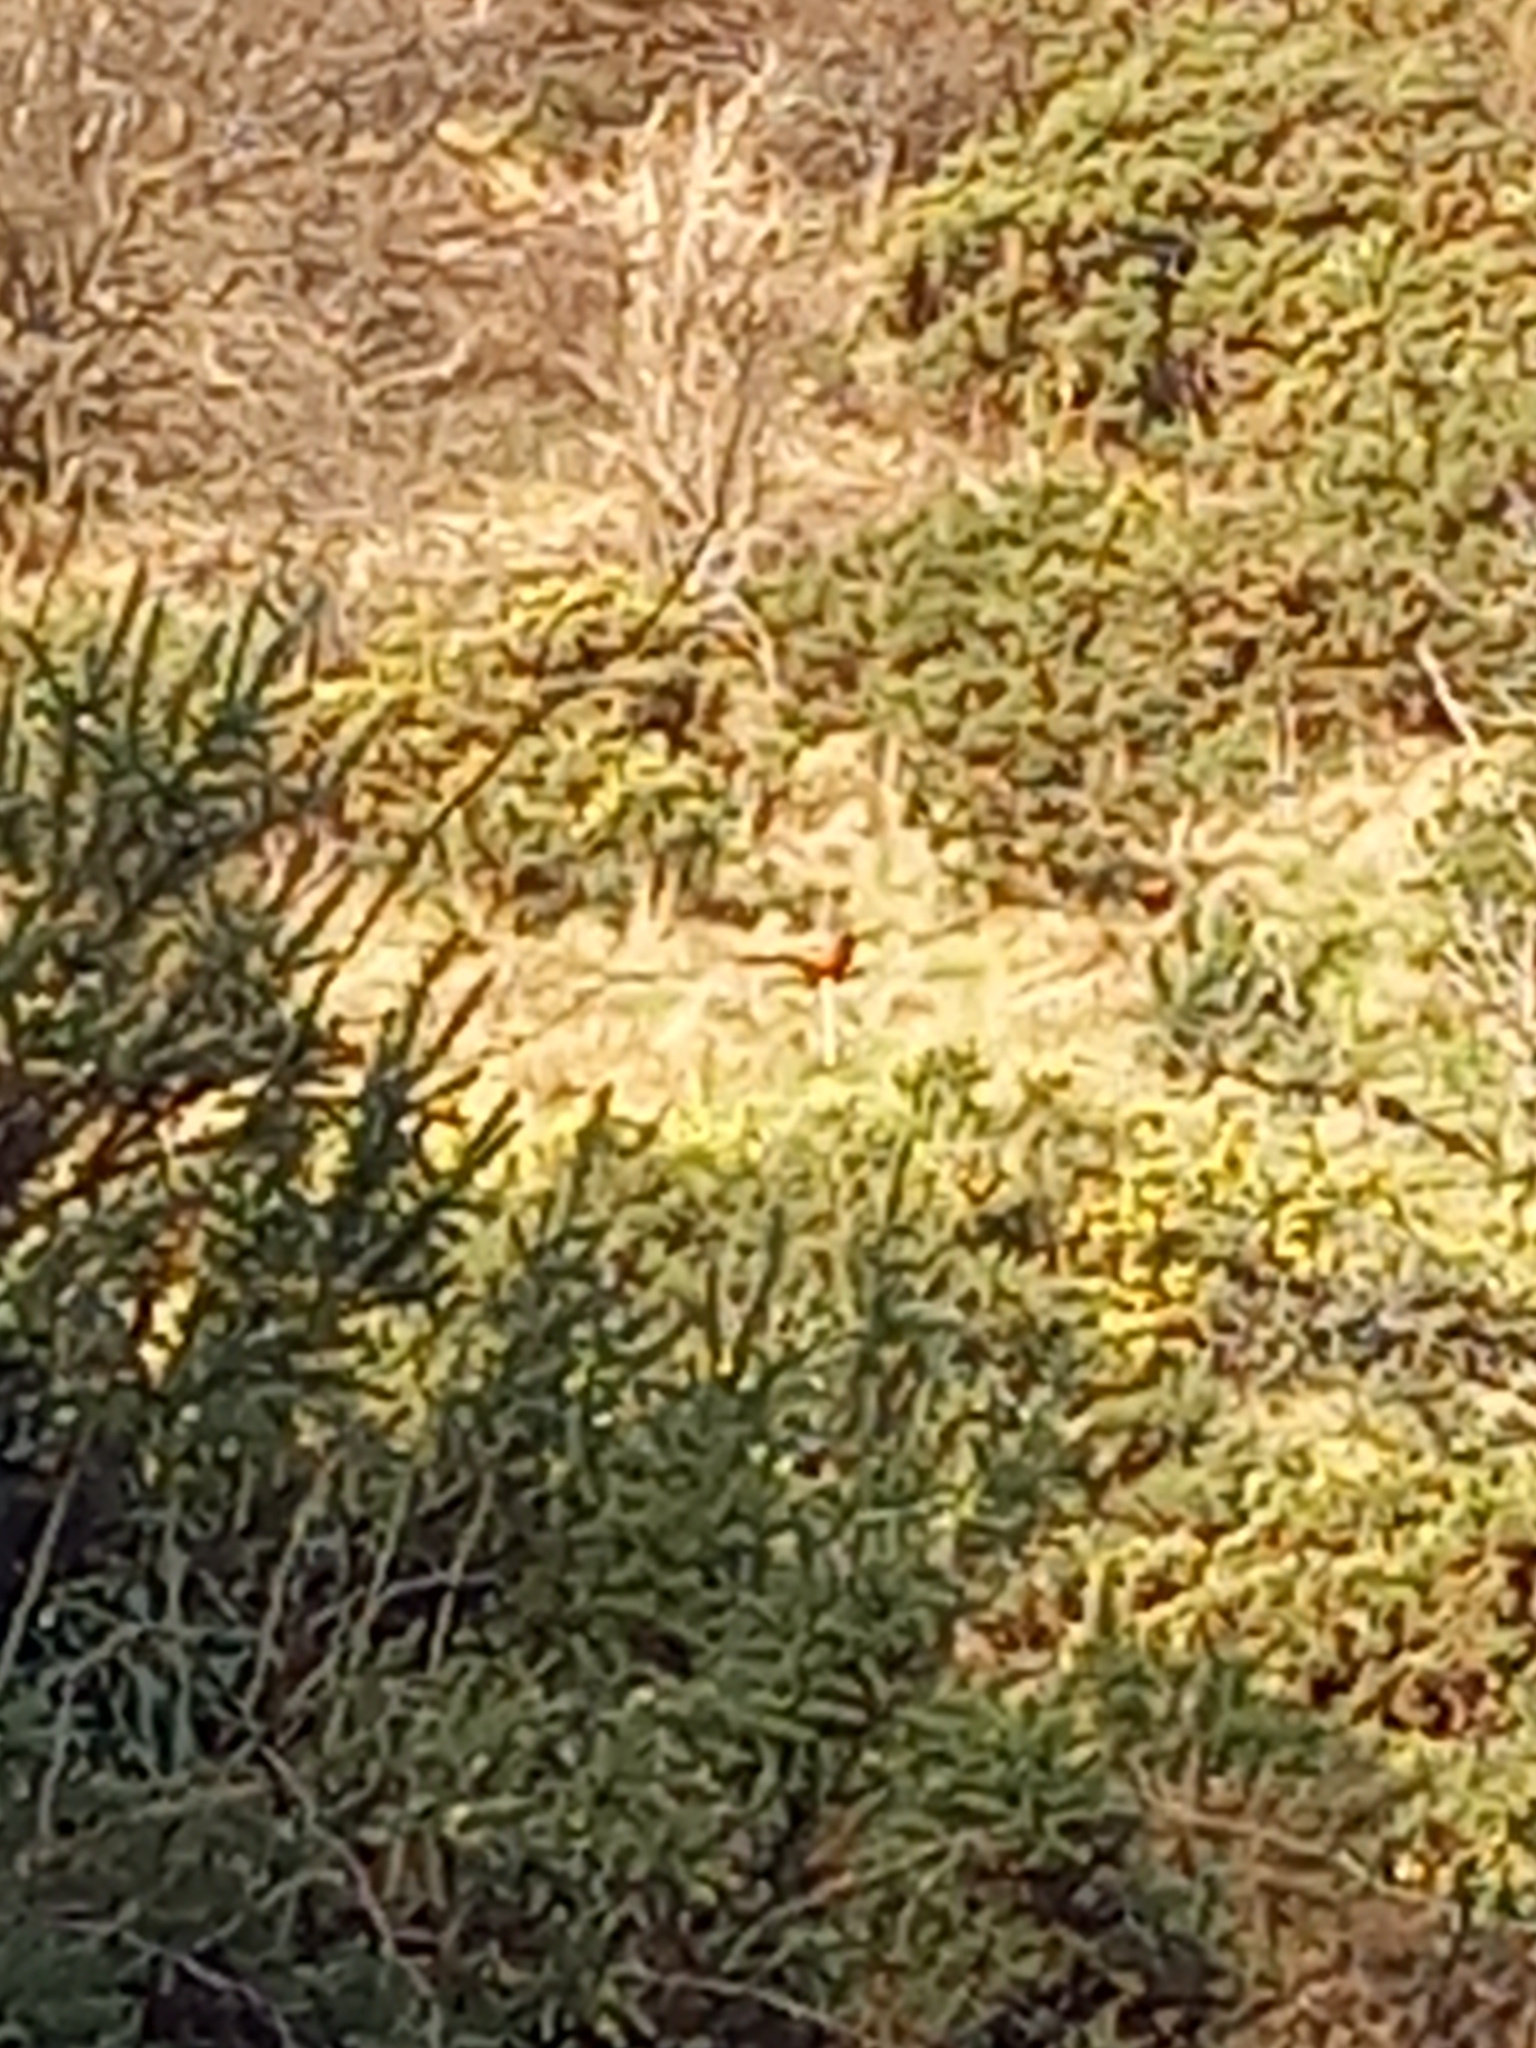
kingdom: Animalia
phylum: Chordata
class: Aves
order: Galliformes
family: Phasianidae
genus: Phasianus
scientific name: Phasianus colchicus
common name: Common pheasant
